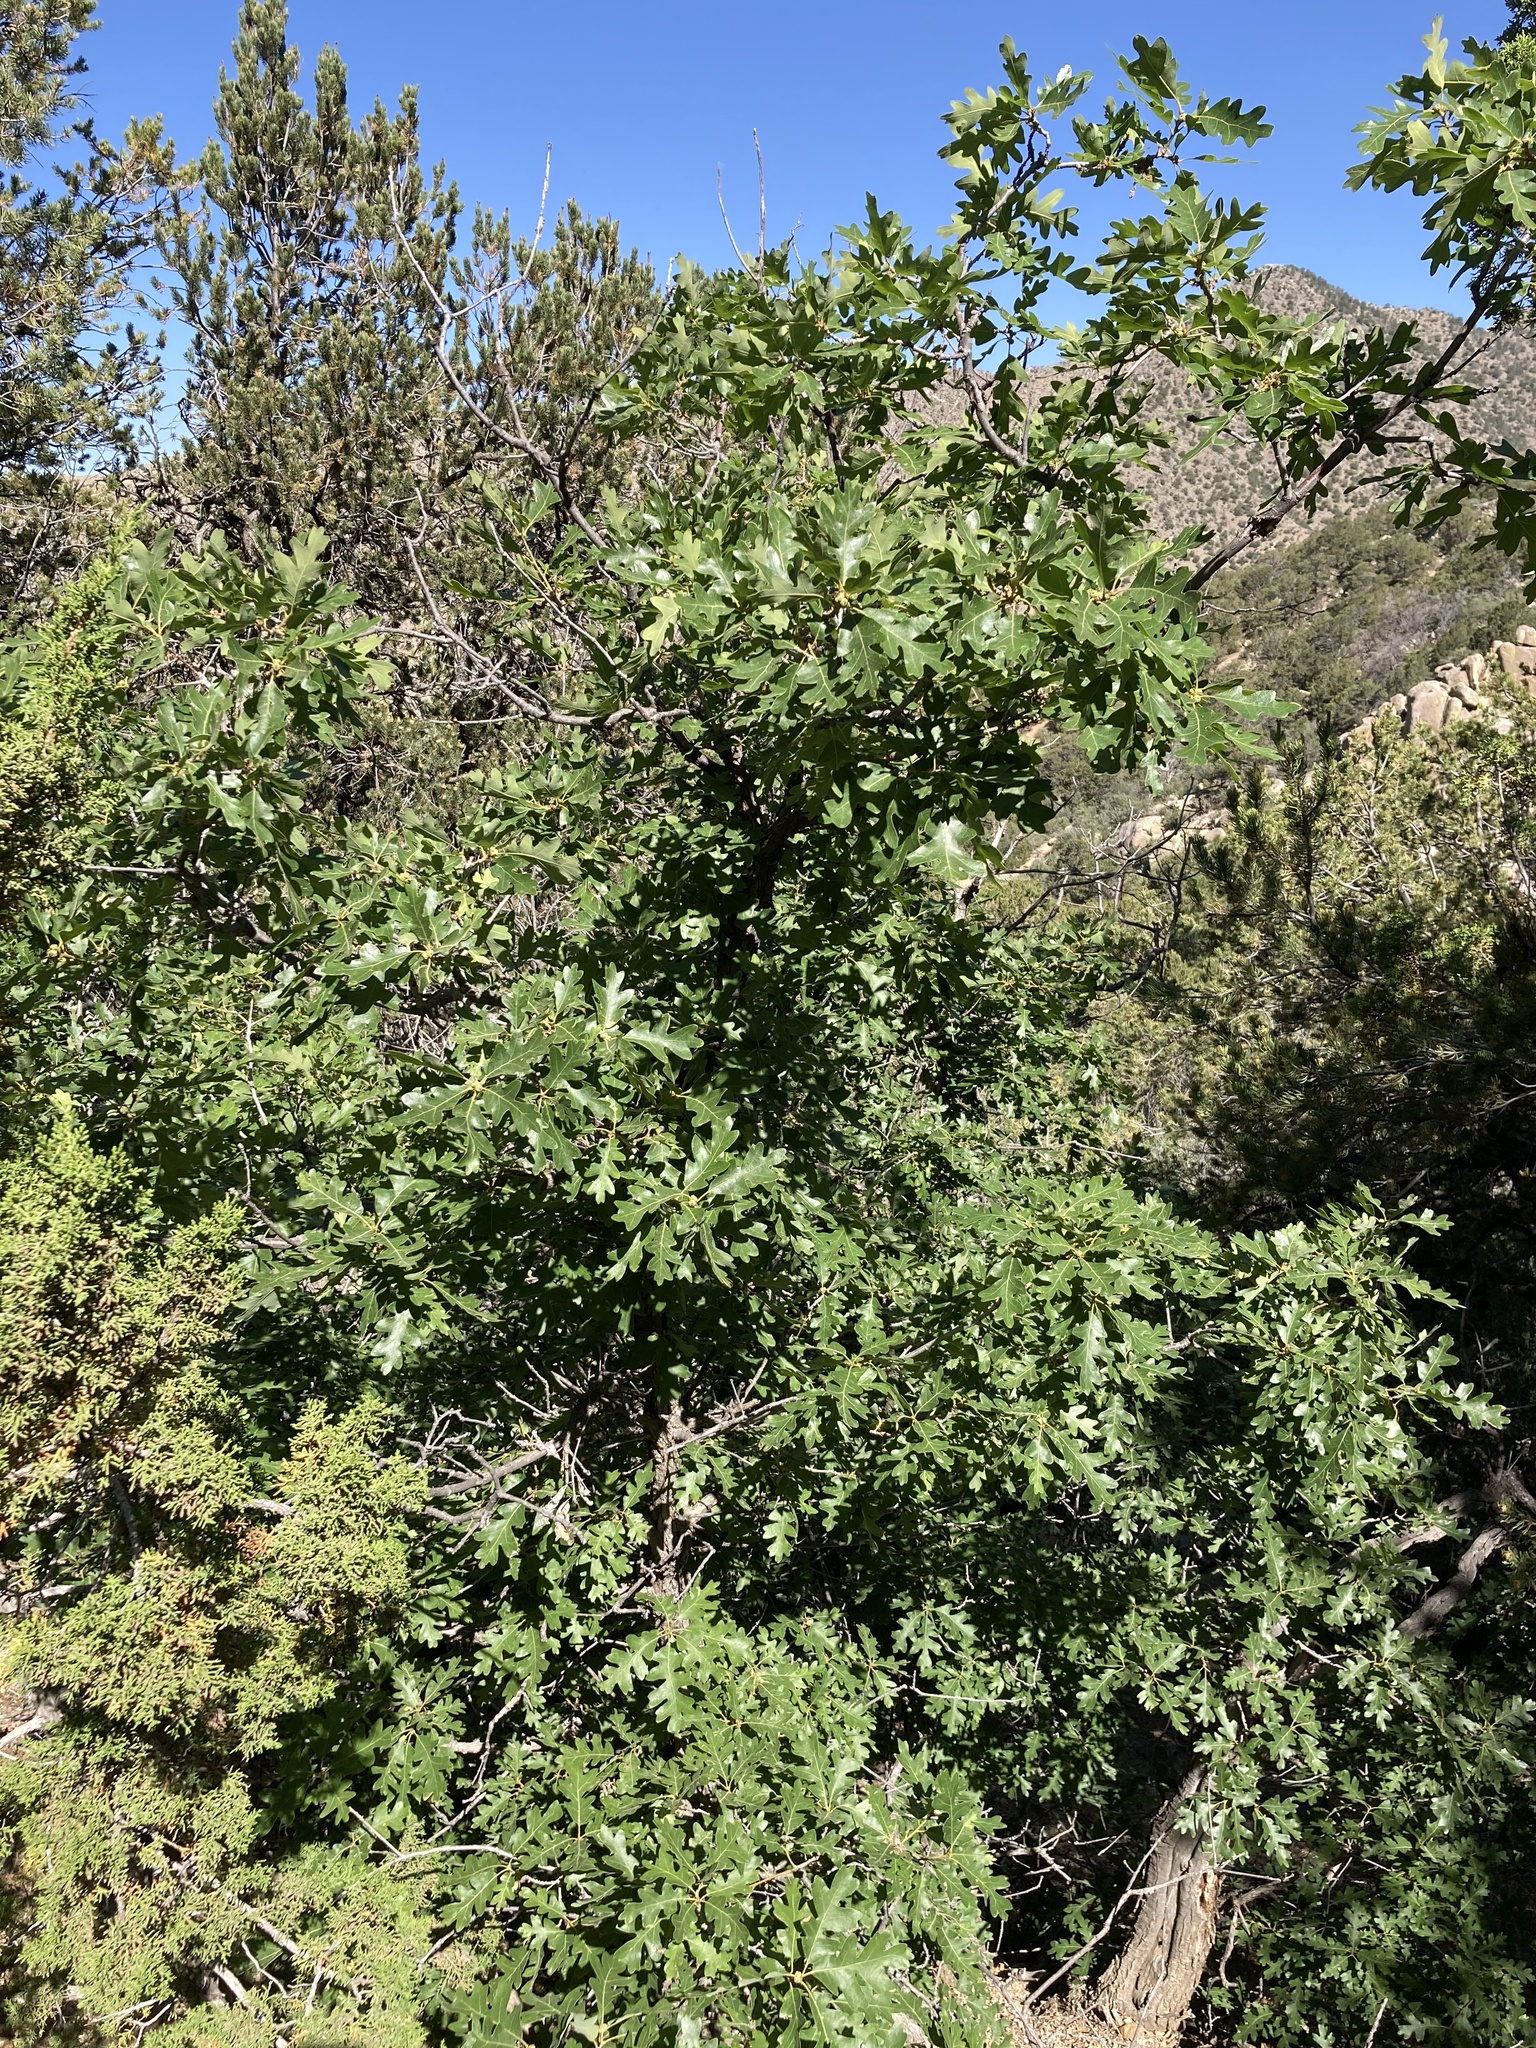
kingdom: Plantae
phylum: Tracheophyta
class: Magnoliopsida
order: Fagales
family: Fagaceae
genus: Quercus
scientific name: Quercus gambelii
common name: Gambel oak
